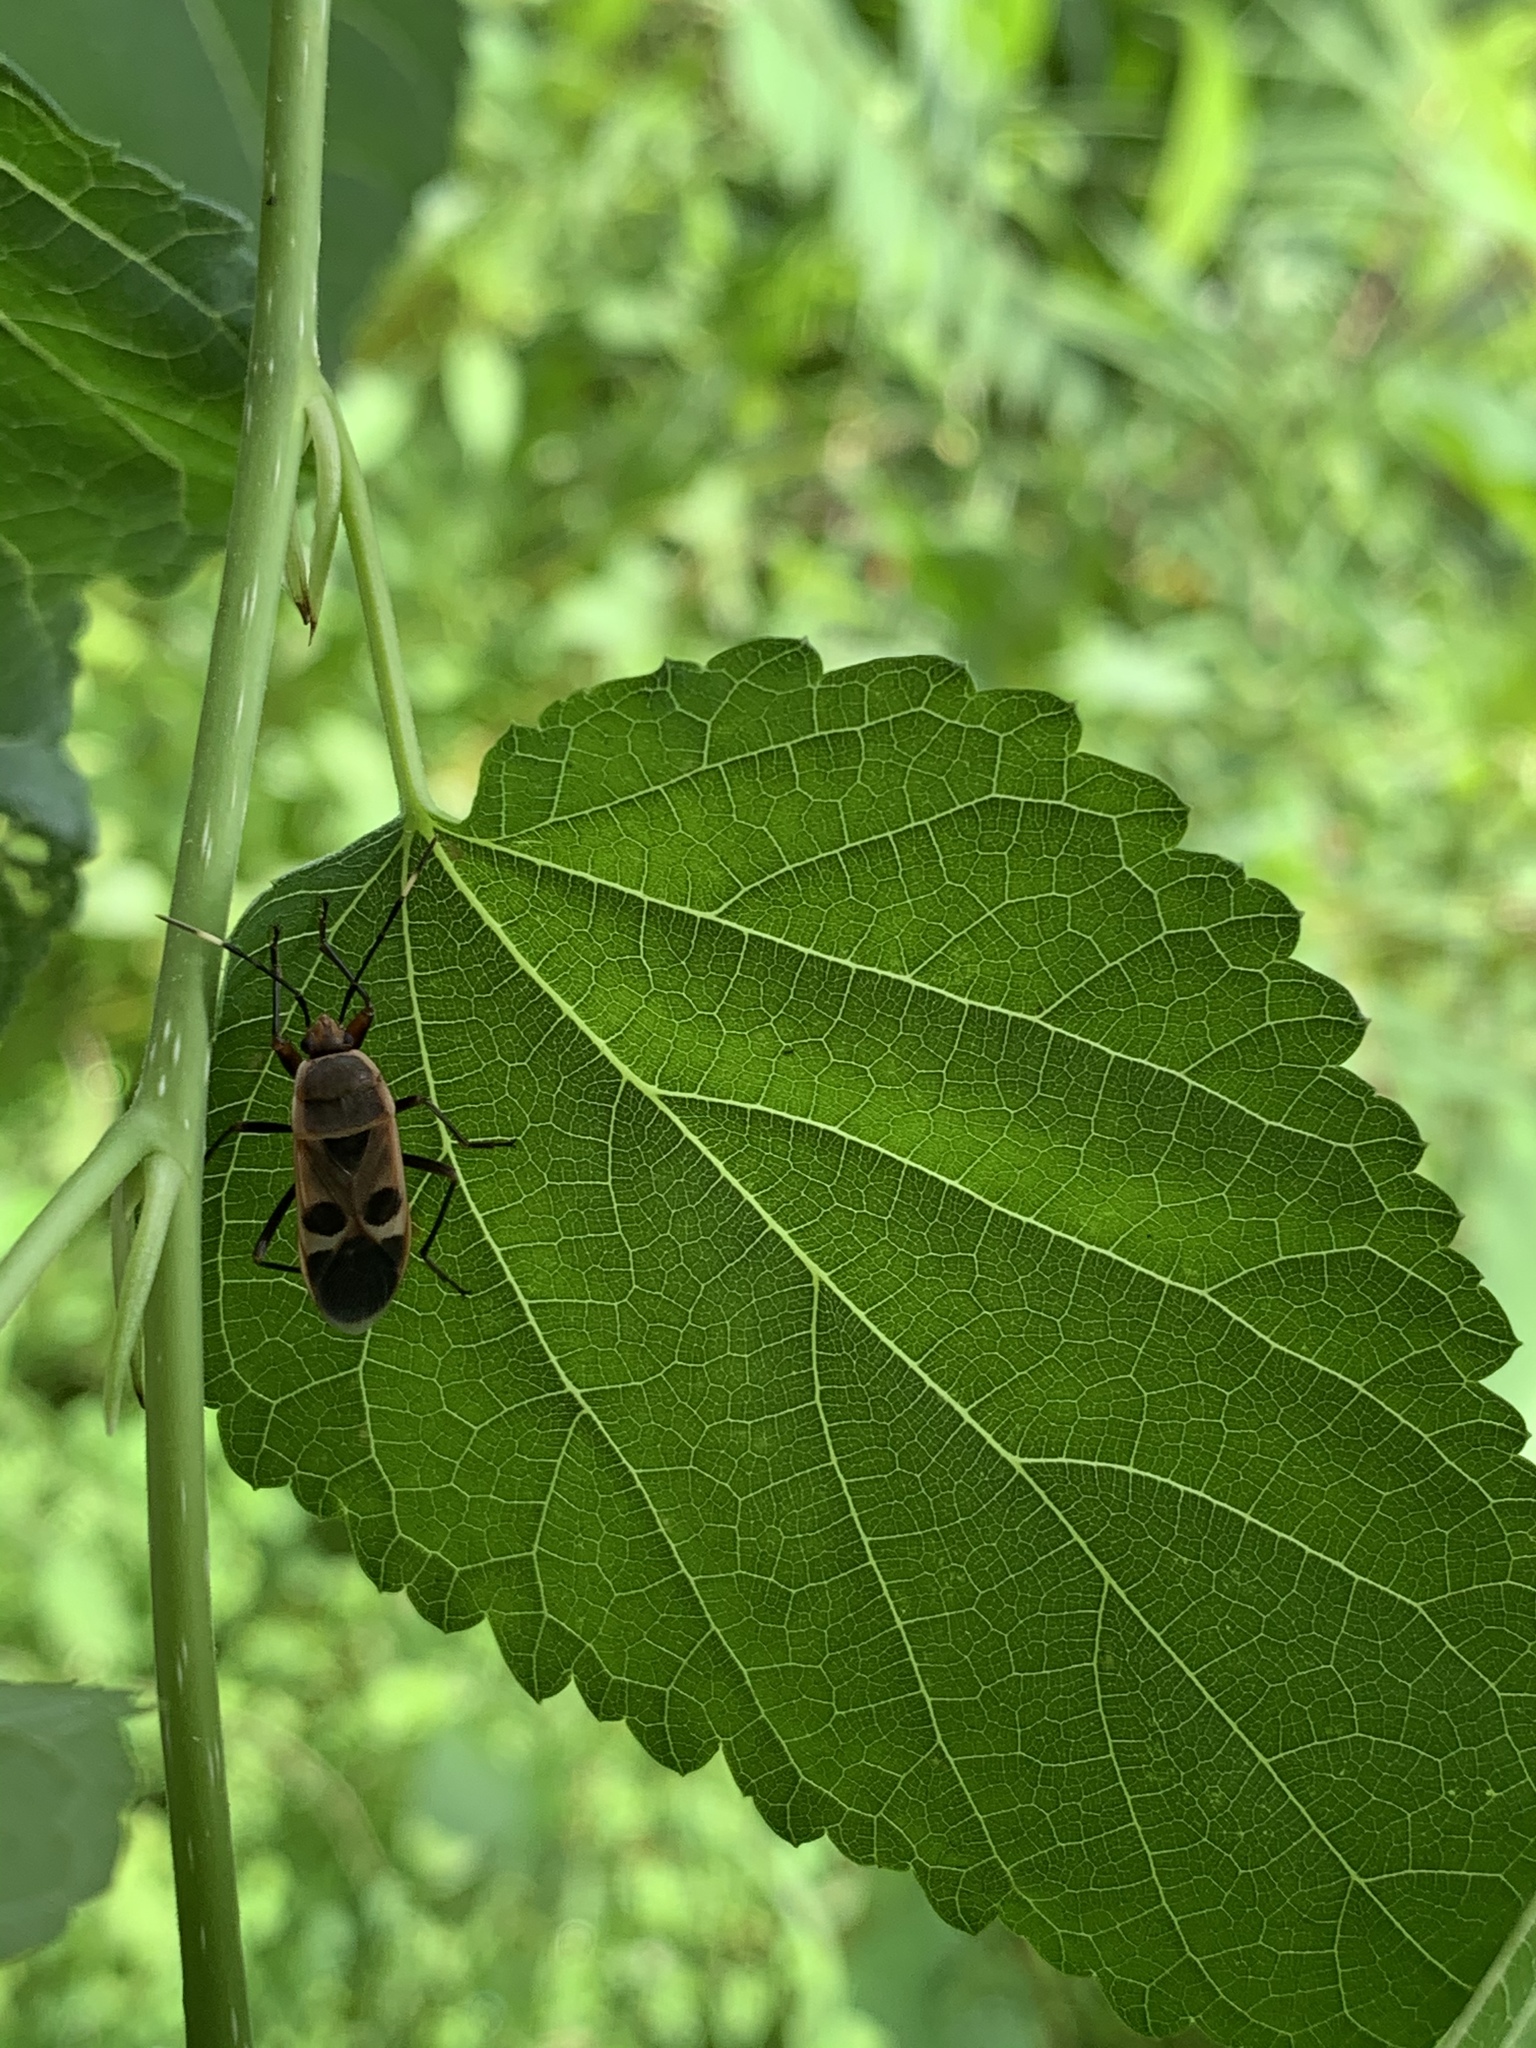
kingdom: Animalia
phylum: Arthropoda
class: Insecta
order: Hemiptera
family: Largidae
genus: Physopelta
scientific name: Physopelta gutta
